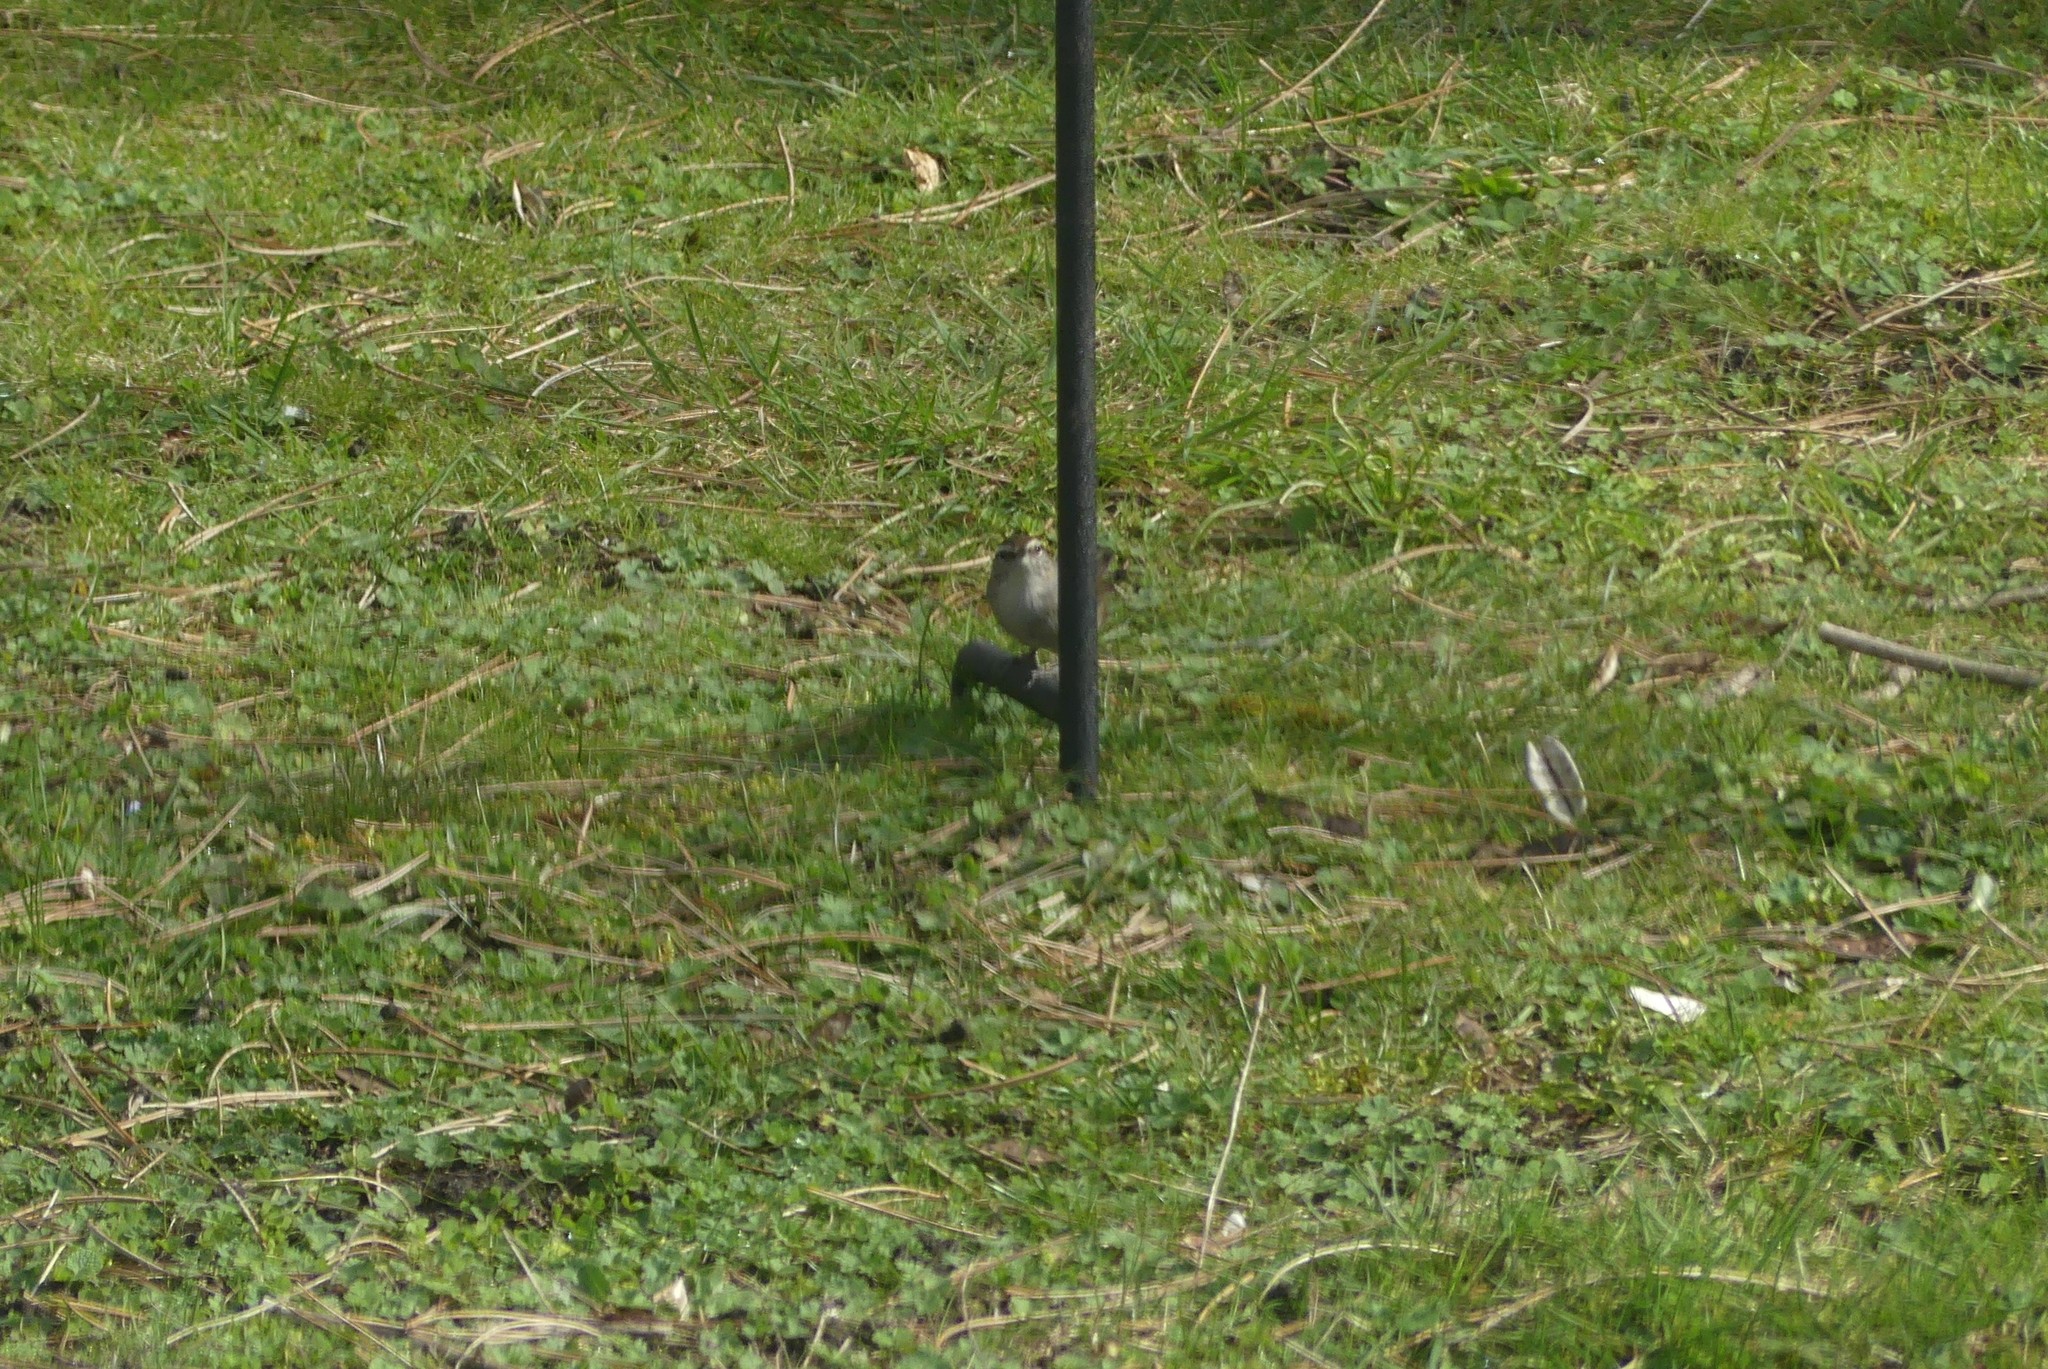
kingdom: Animalia
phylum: Chordata
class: Aves
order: Passeriformes
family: Troglodytidae
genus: Thryomanes
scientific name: Thryomanes bewickii
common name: Bewick's wren
